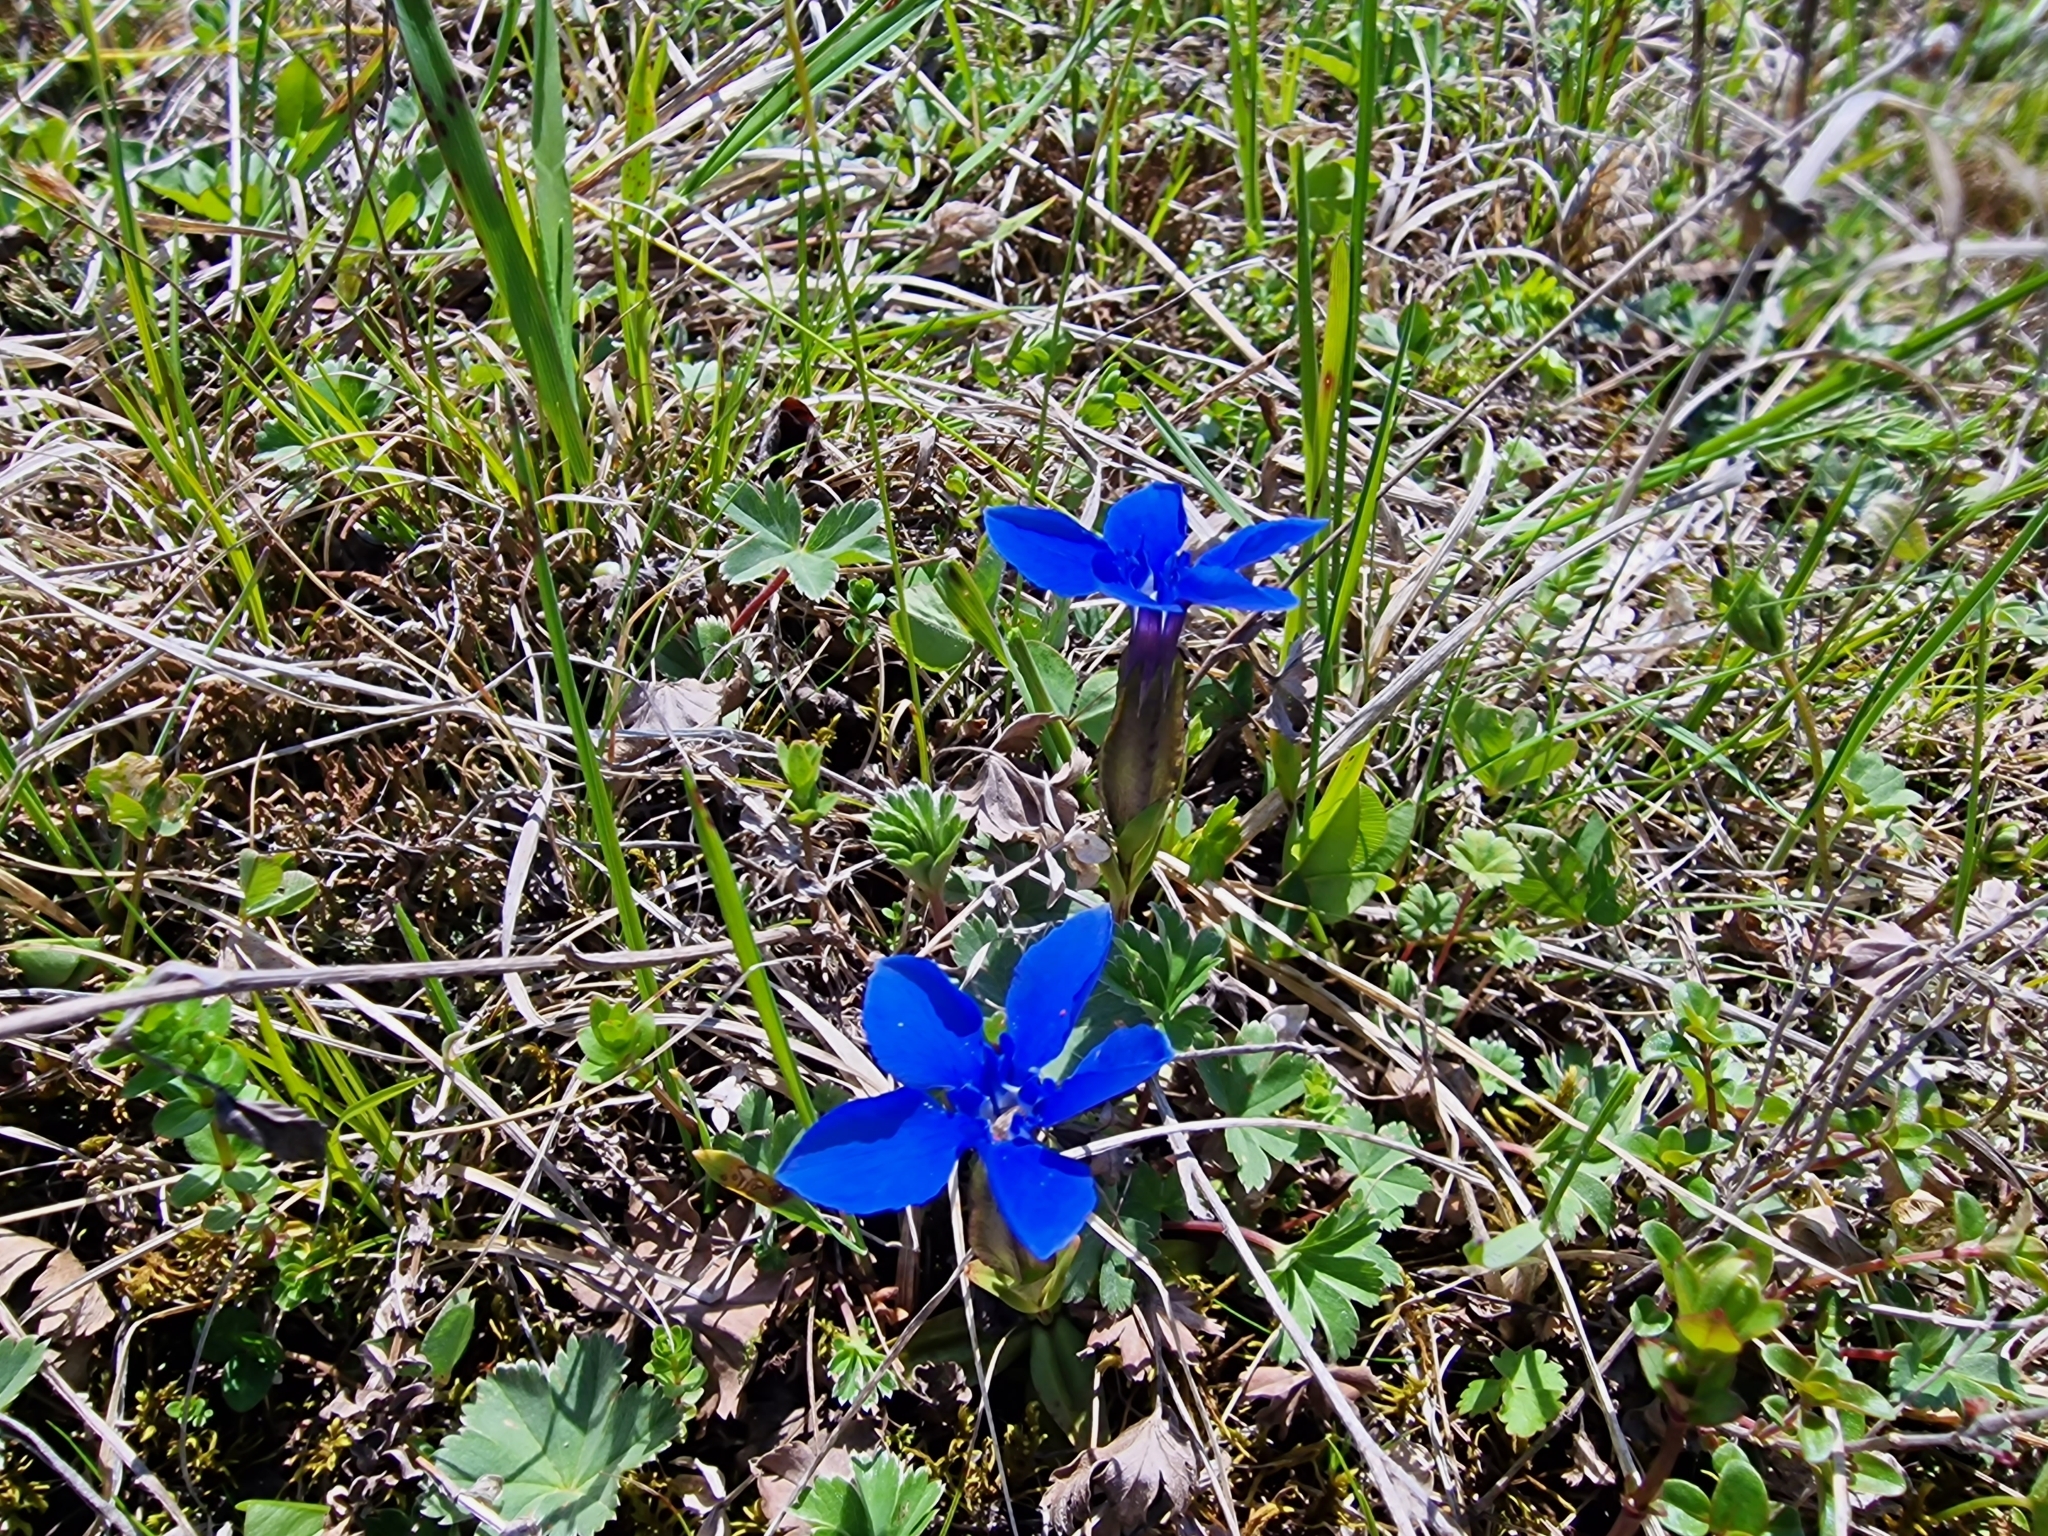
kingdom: Plantae
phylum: Tracheophyta
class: Magnoliopsida
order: Gentianales
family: Gentianaceae
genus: Gentiana
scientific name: Gentiana verna
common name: Spring gentian
